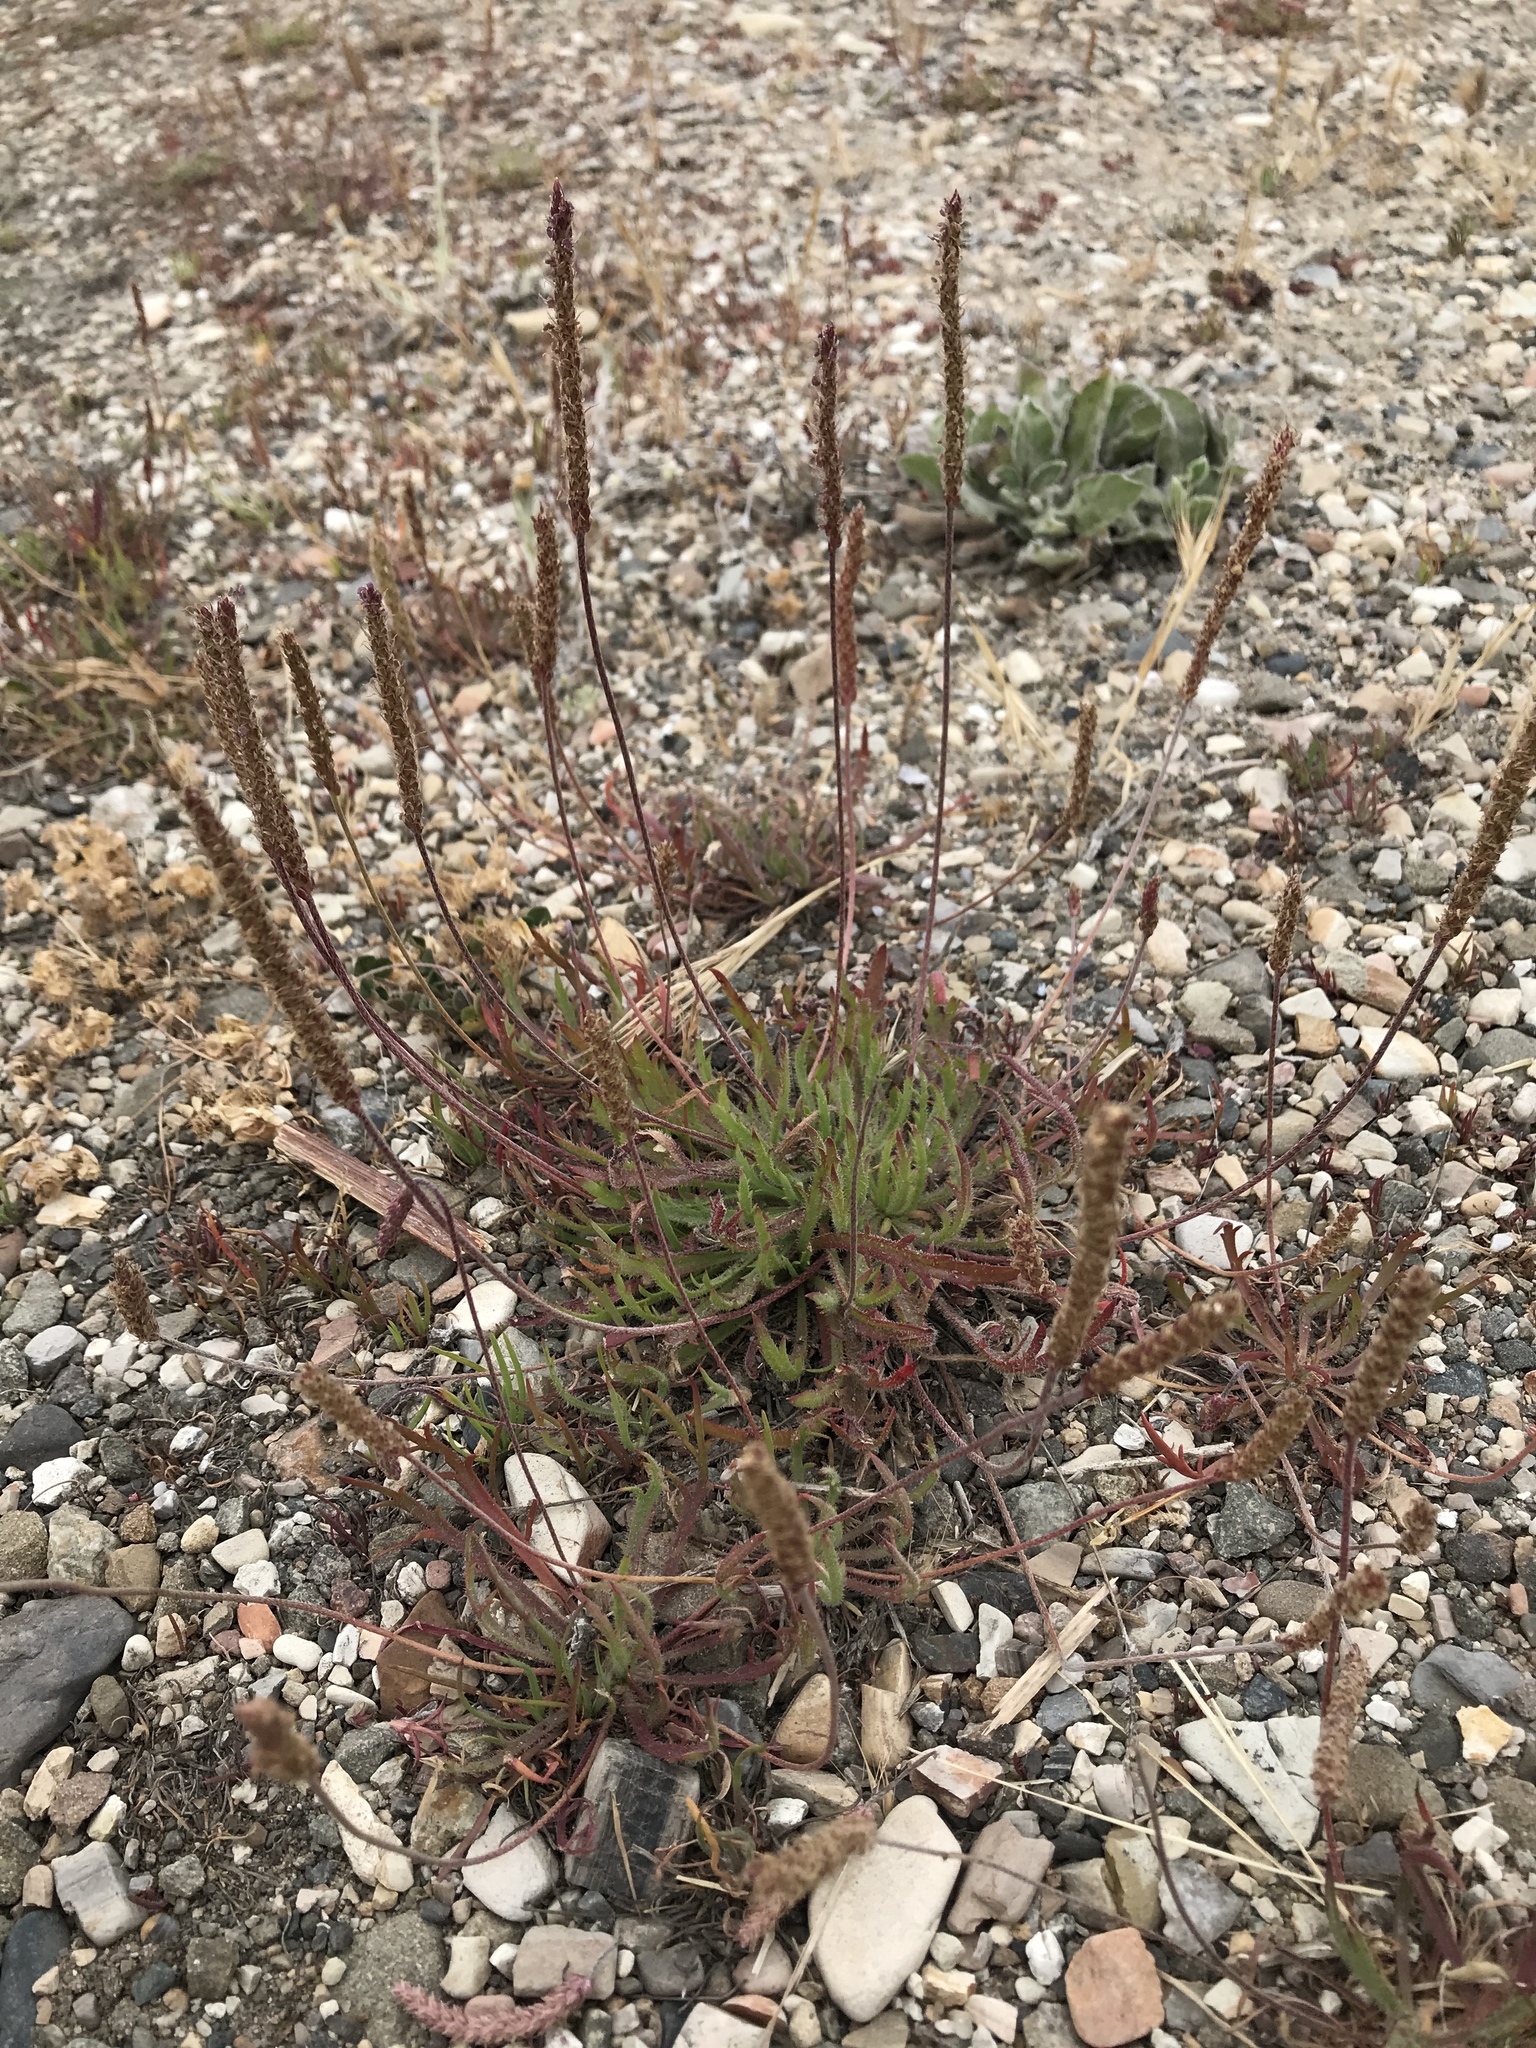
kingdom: Plantae
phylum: Tracheophyta
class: Magnoliopsida
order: Lamiales
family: Plantaginaceae
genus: Plantago
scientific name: Plantago coronopus
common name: Buck's-horn plantain
